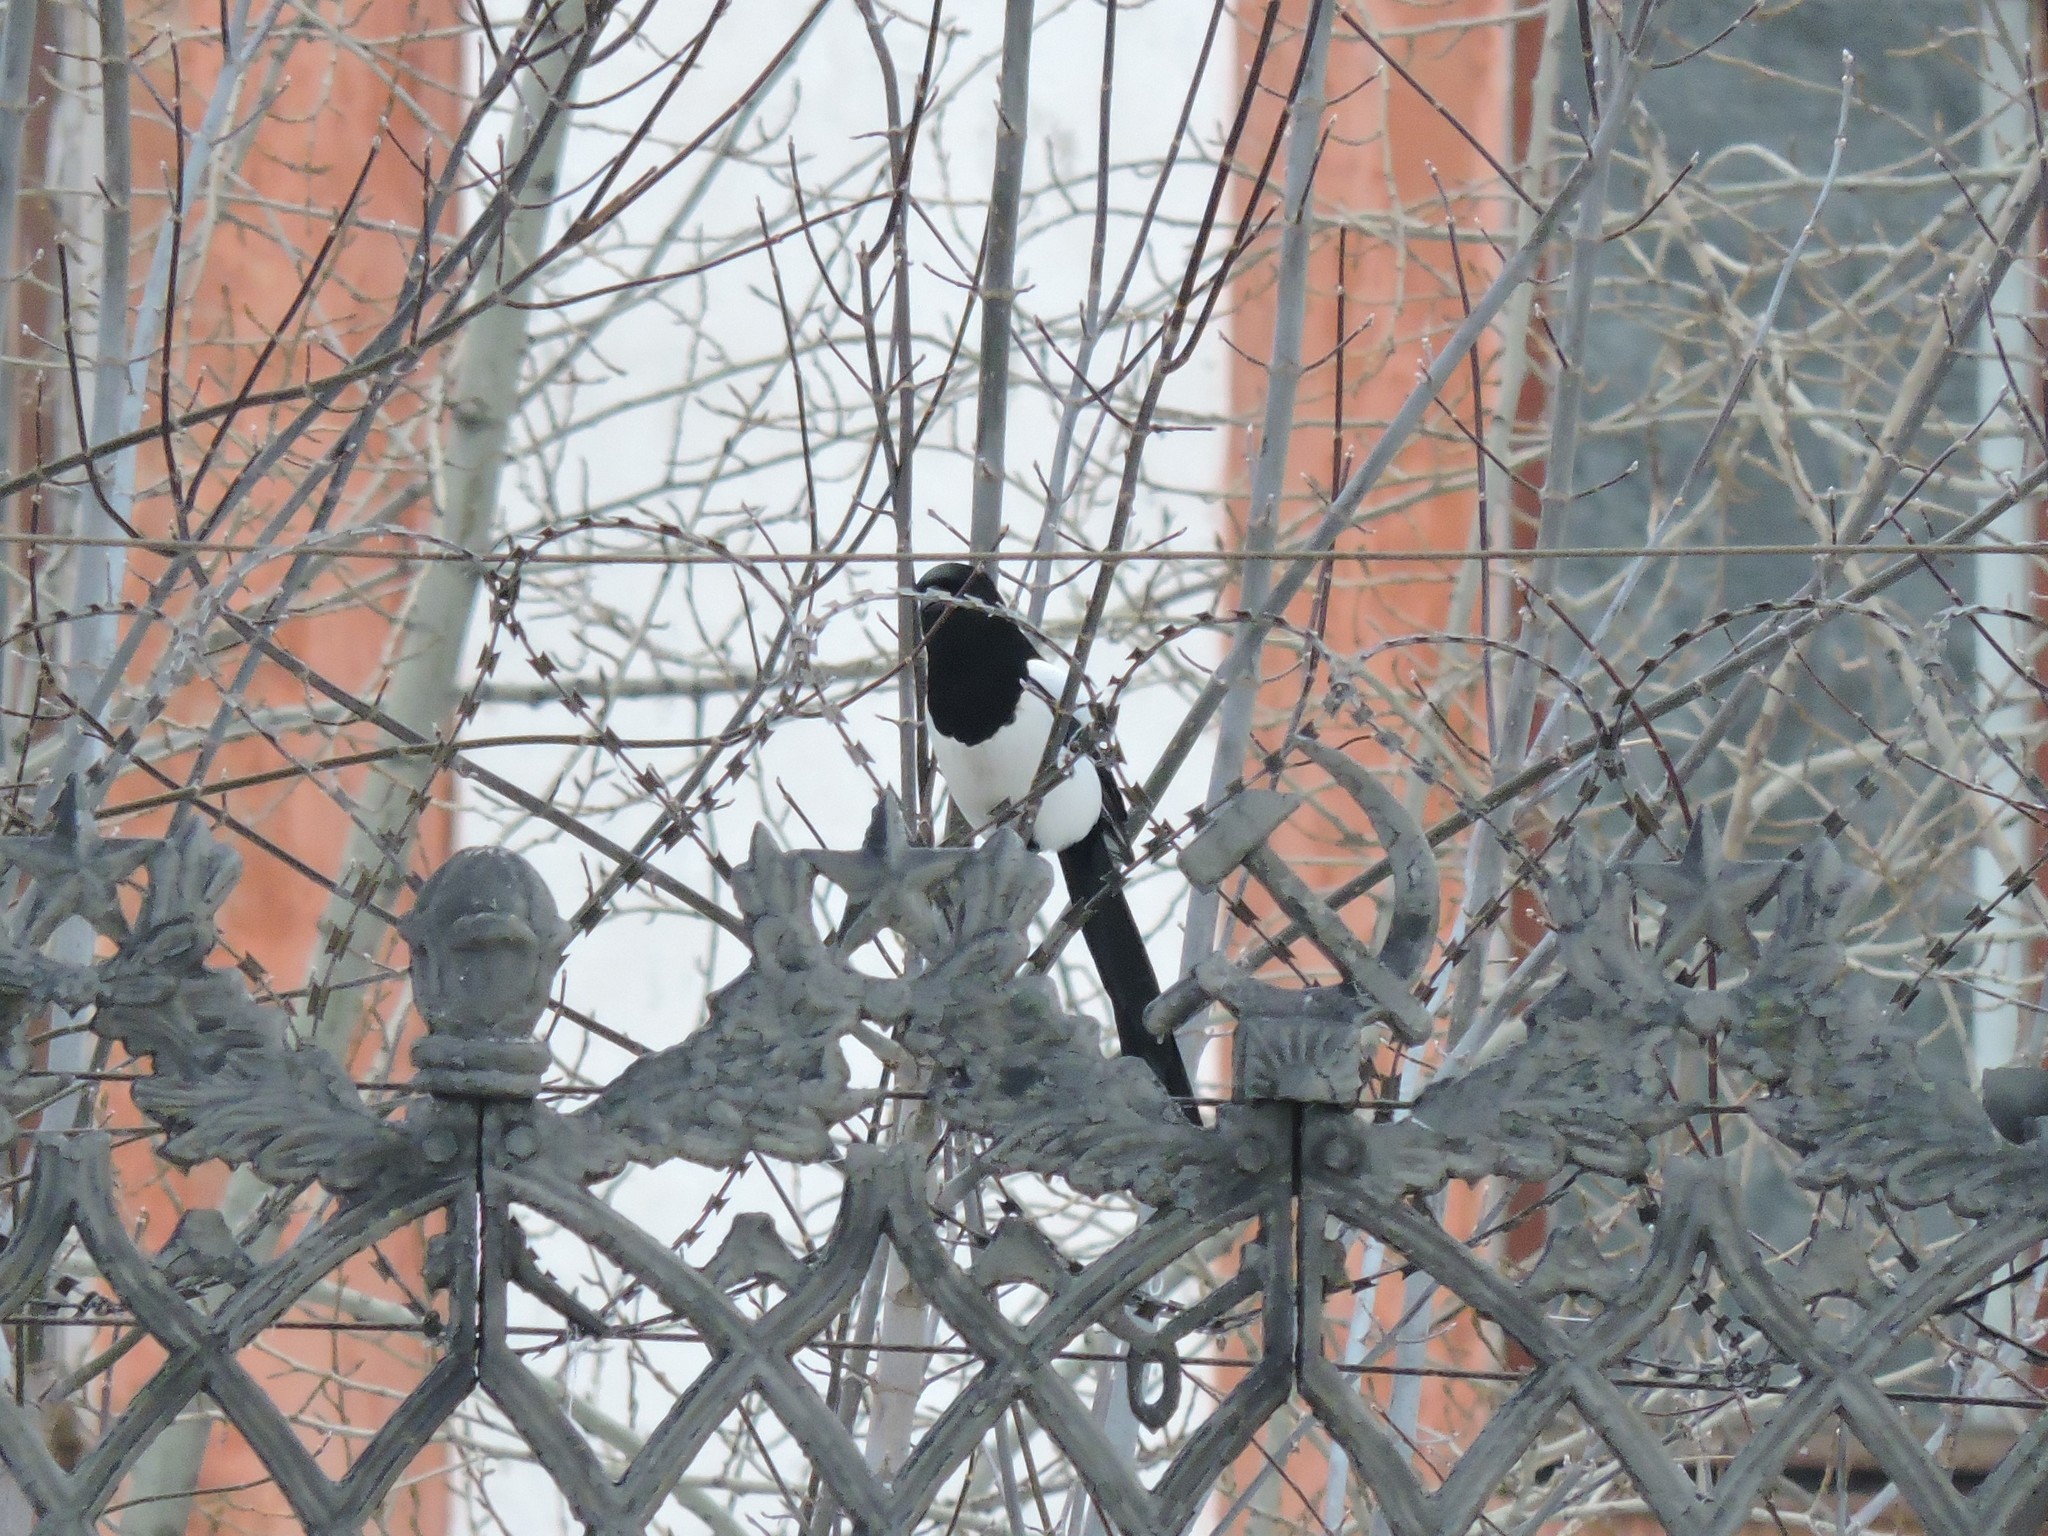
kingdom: Animalia
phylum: Chordata
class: Aves
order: Passeriformes
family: Corvidae
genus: Pica
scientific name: Pica pica
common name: Eurasian magpie
